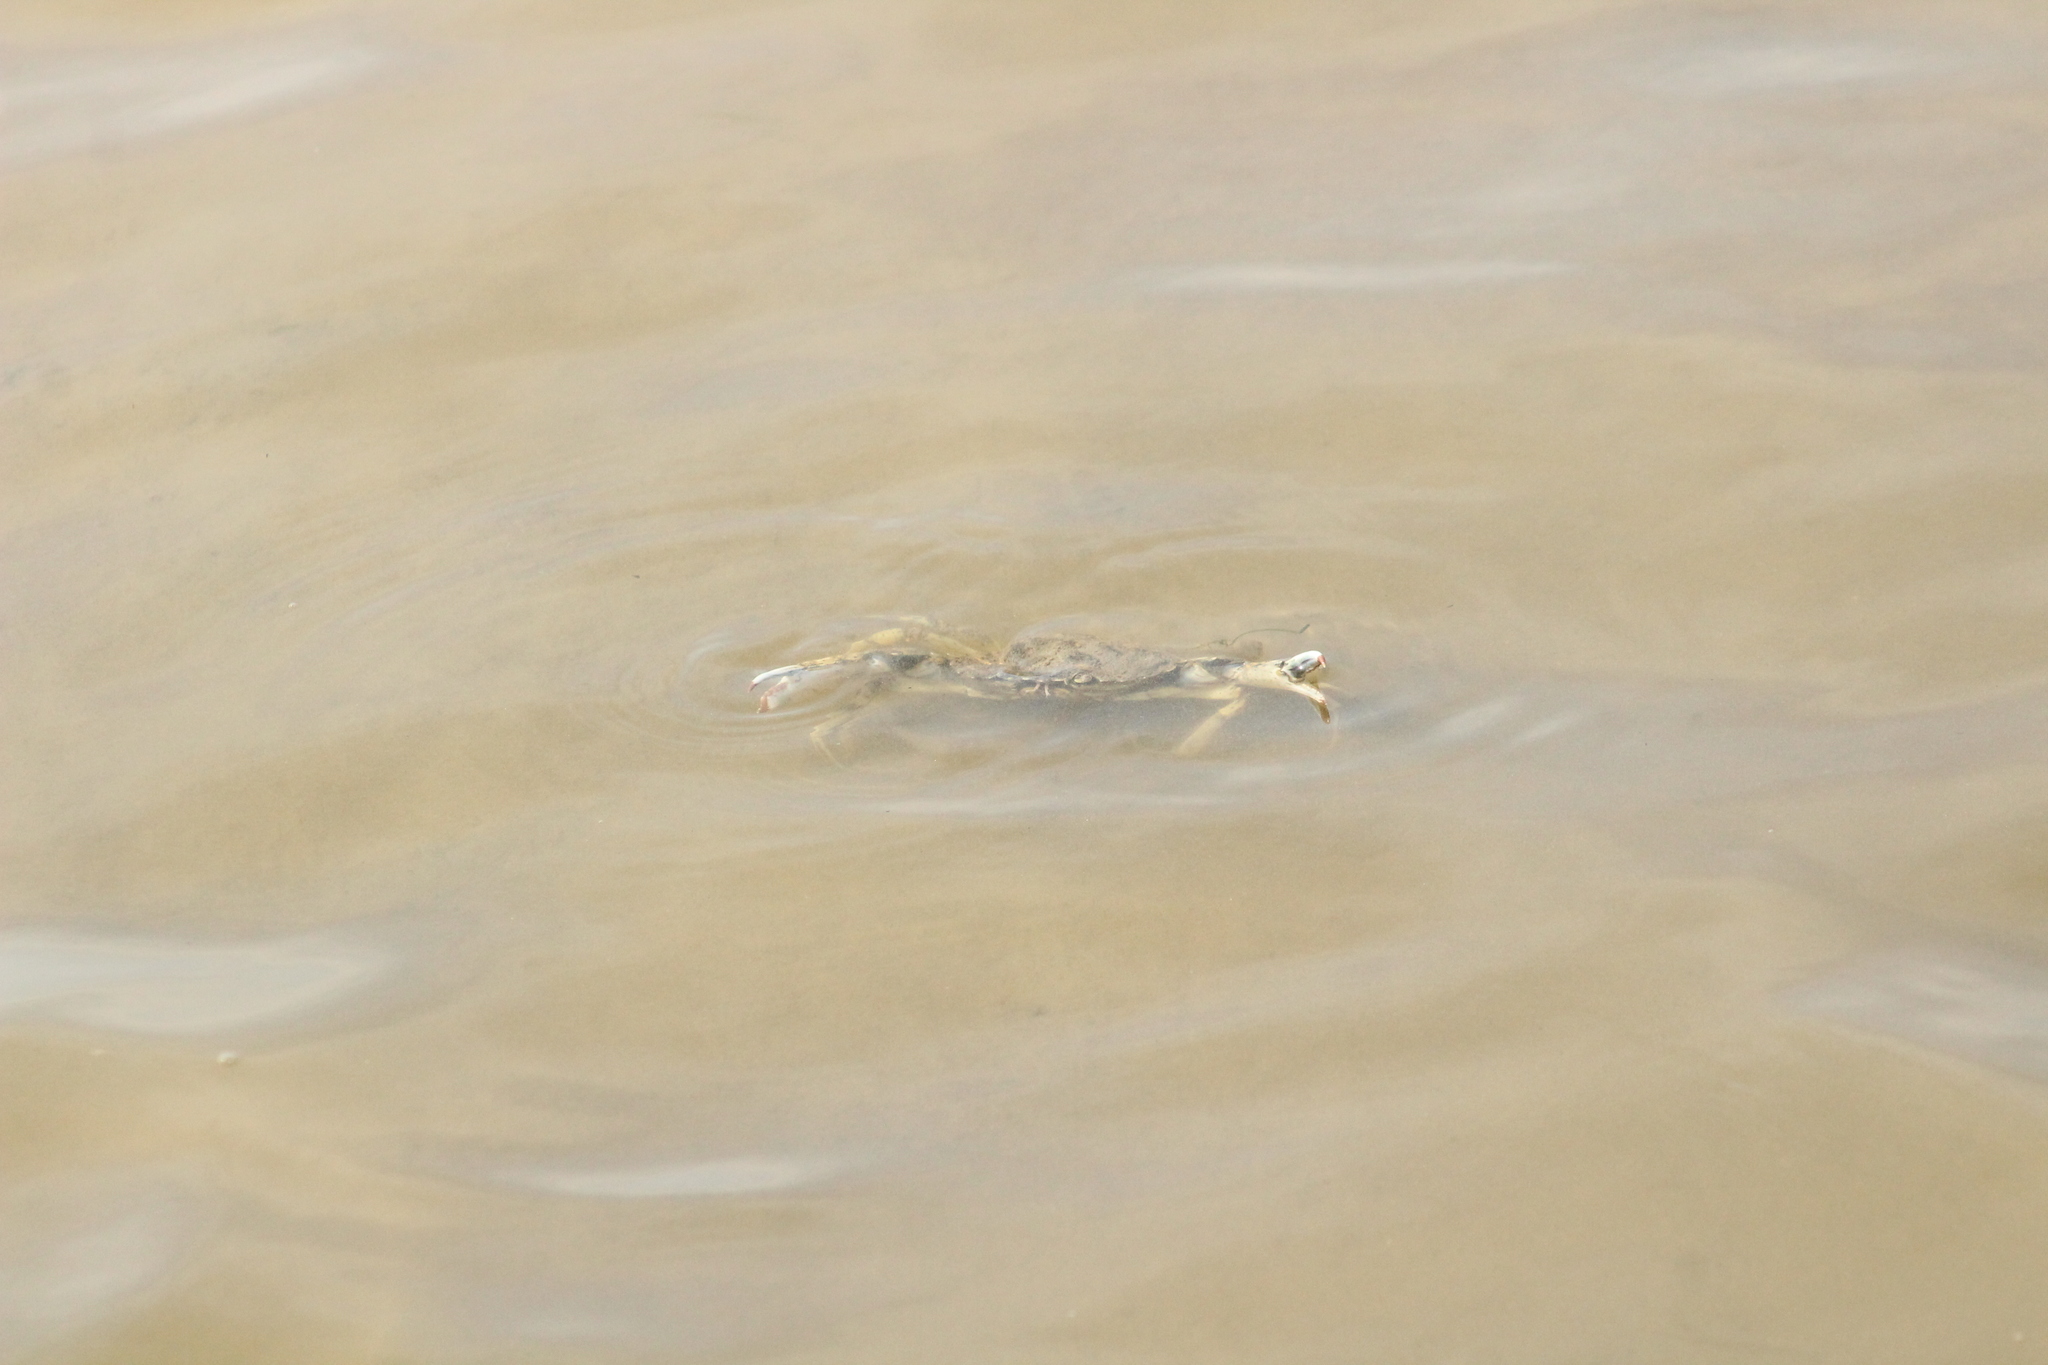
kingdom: Animalia
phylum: Arthropoda
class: Malacostraca
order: Decapoda
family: Carcinidae
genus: Carcinus
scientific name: Carcinus maenas
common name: European green crab
